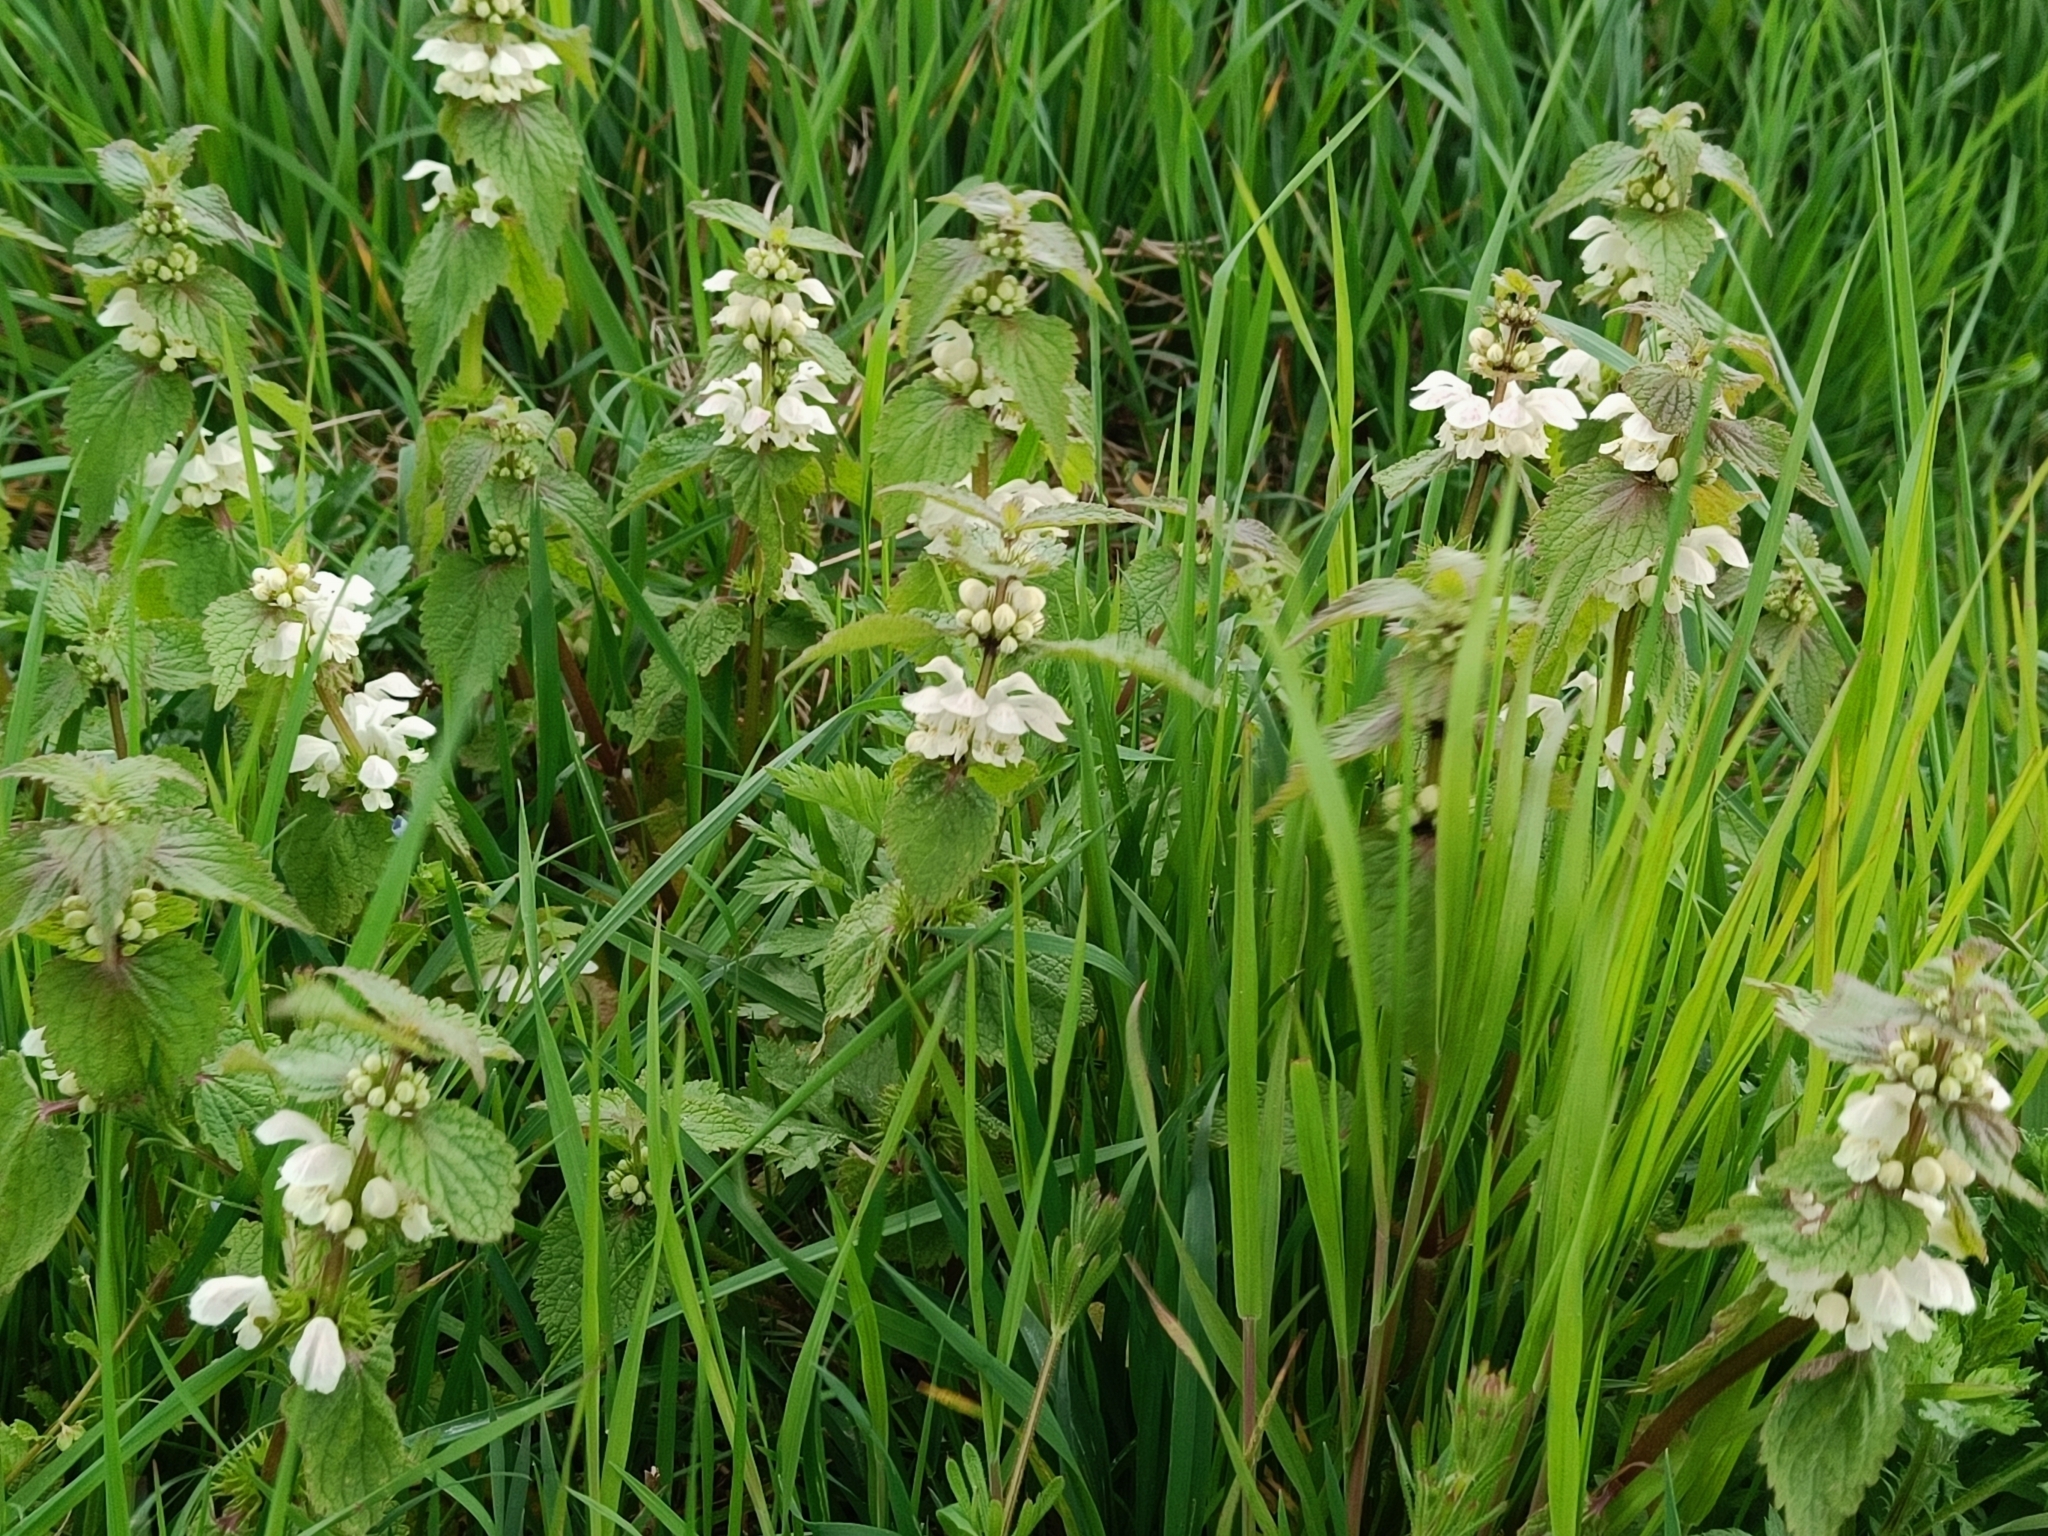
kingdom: Plantae
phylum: Tracheophyta
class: Magnoliopsida
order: Lamiales
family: Lamiaceae
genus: Lamium
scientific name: Lamium album
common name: White dead-nettle
